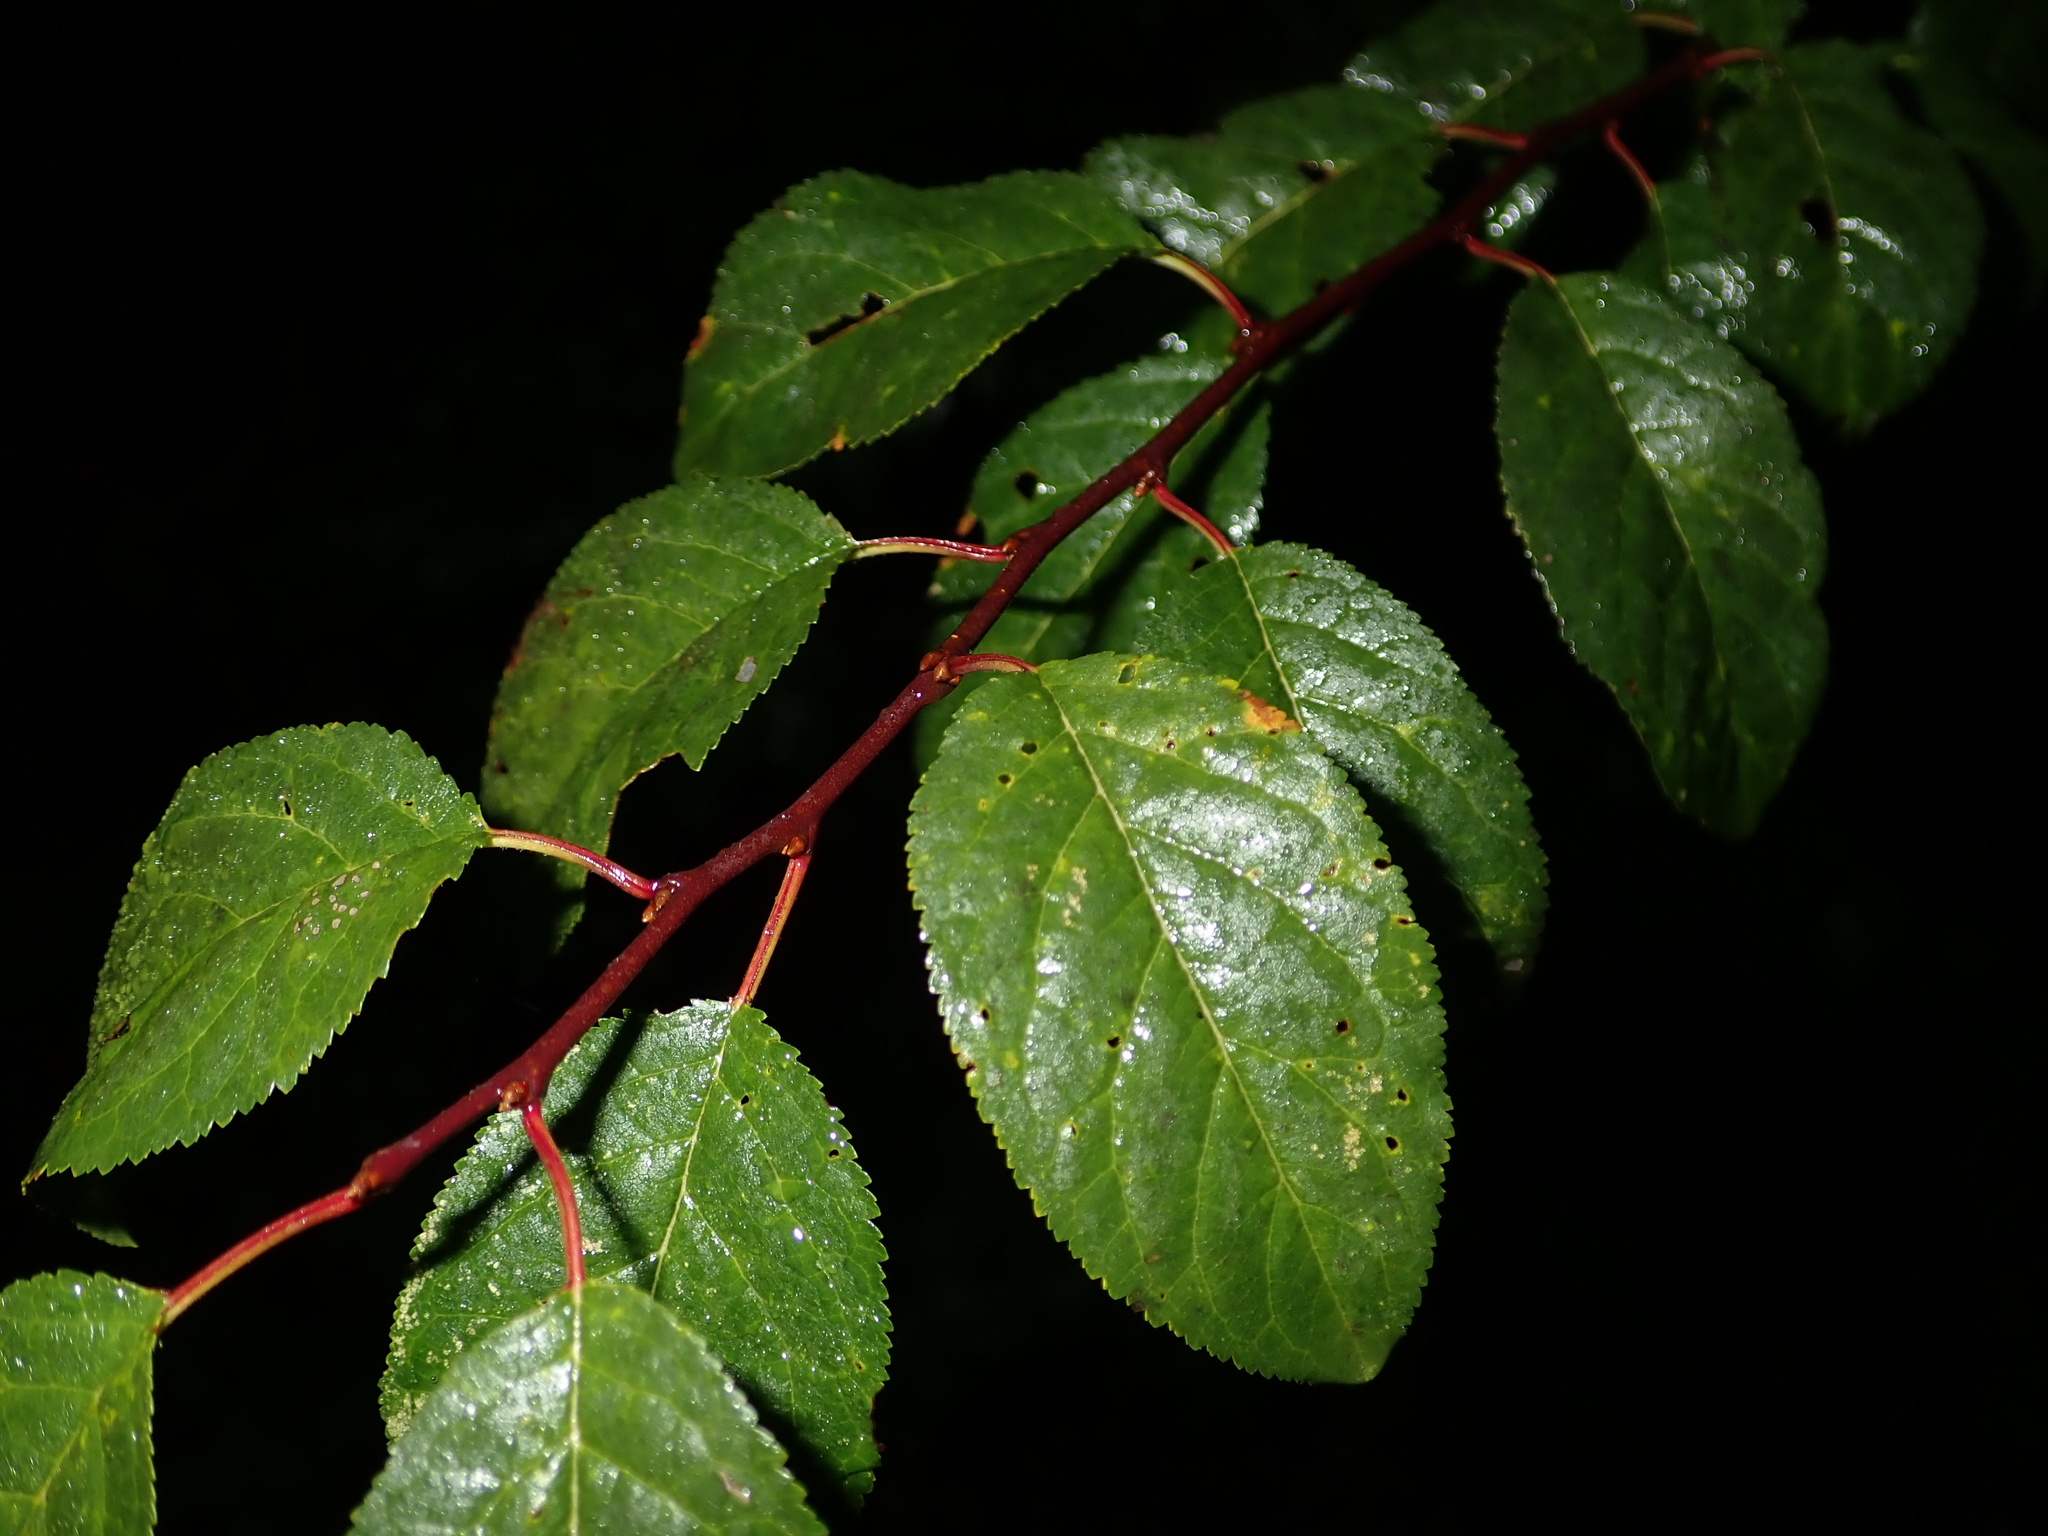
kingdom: Plantae
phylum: Tracheophyta
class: Magnoliopsida
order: Rosales
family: Rosaceae
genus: Prunus
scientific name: Prunus padus
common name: Bird cherry
